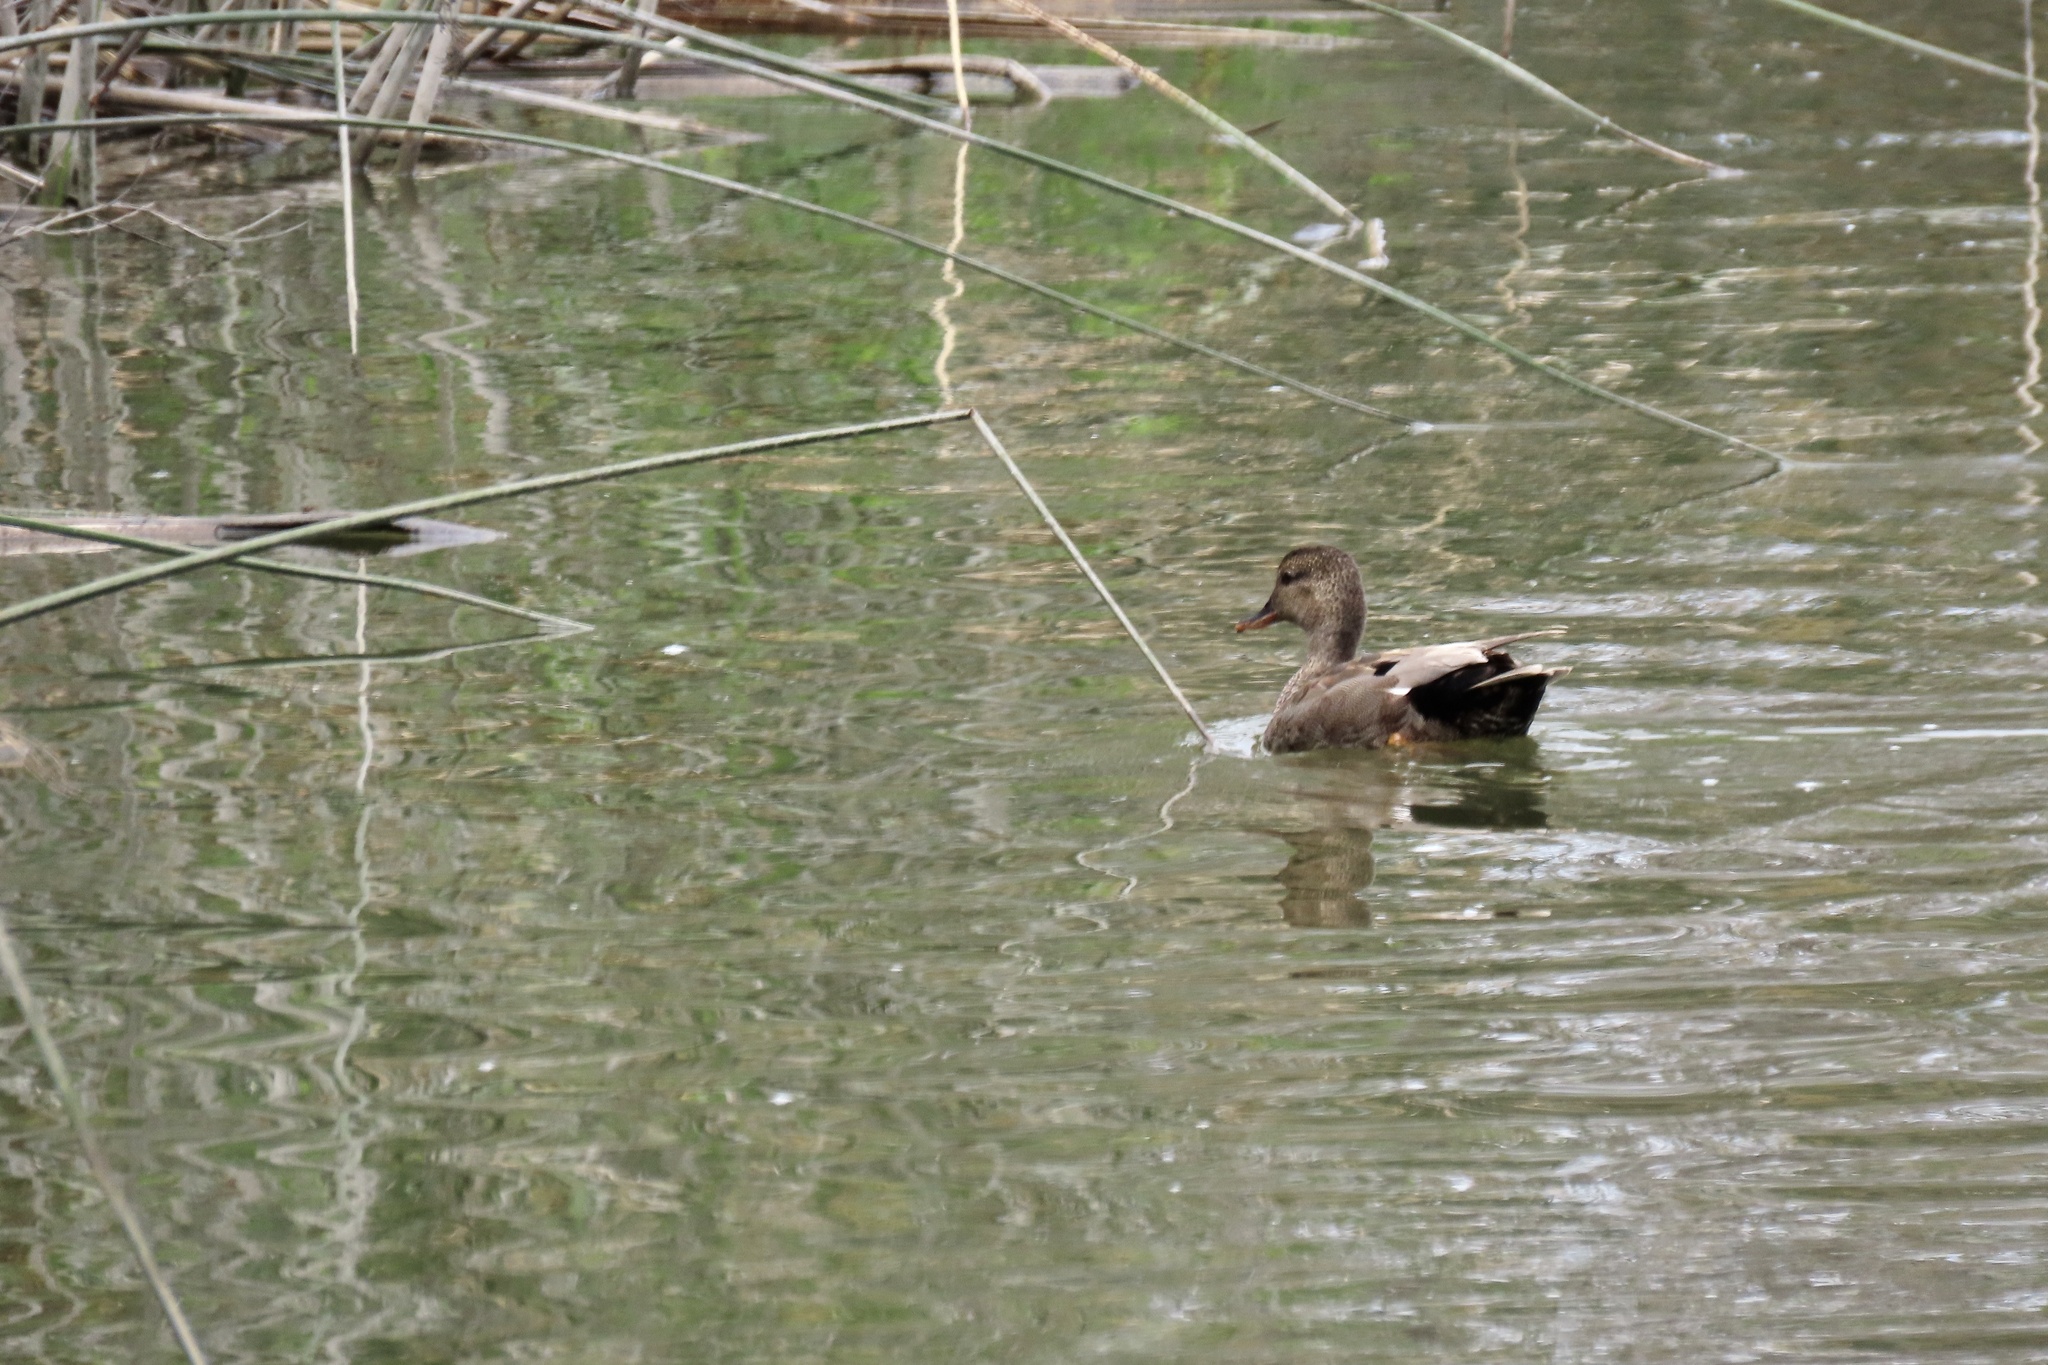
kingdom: Animalia
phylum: Chordata
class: Aves
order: Anseriformes
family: Anatidae
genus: Mareca
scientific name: Mareca strepera
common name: Gadwall
